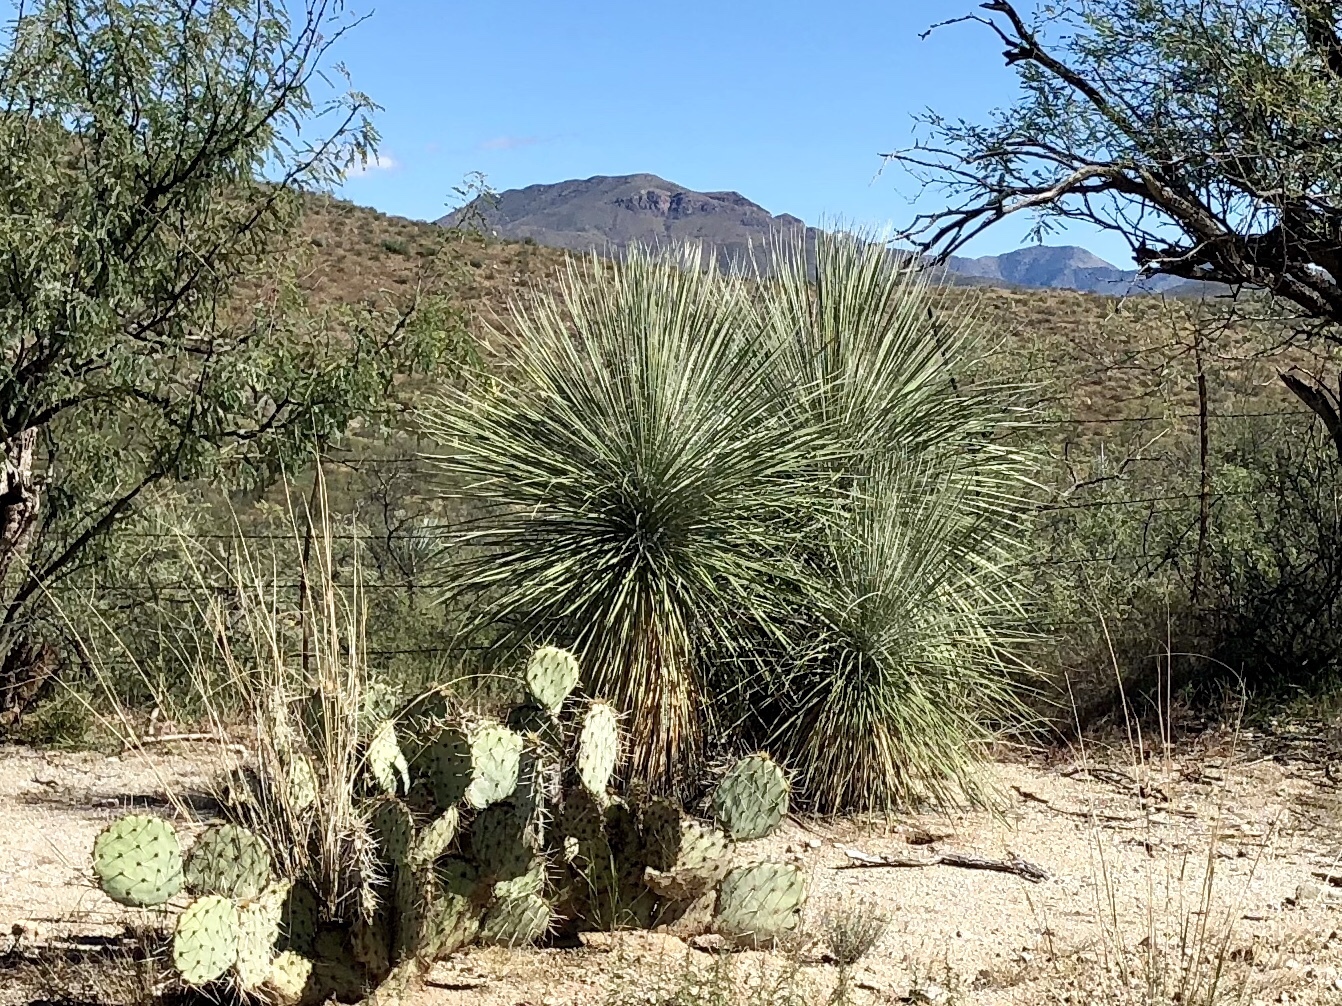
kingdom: Plantae
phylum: Tracheophyta
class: Liliopsida
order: Asparagales
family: Asparagaceae
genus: Yucca
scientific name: Yucca elata
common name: Palmella
